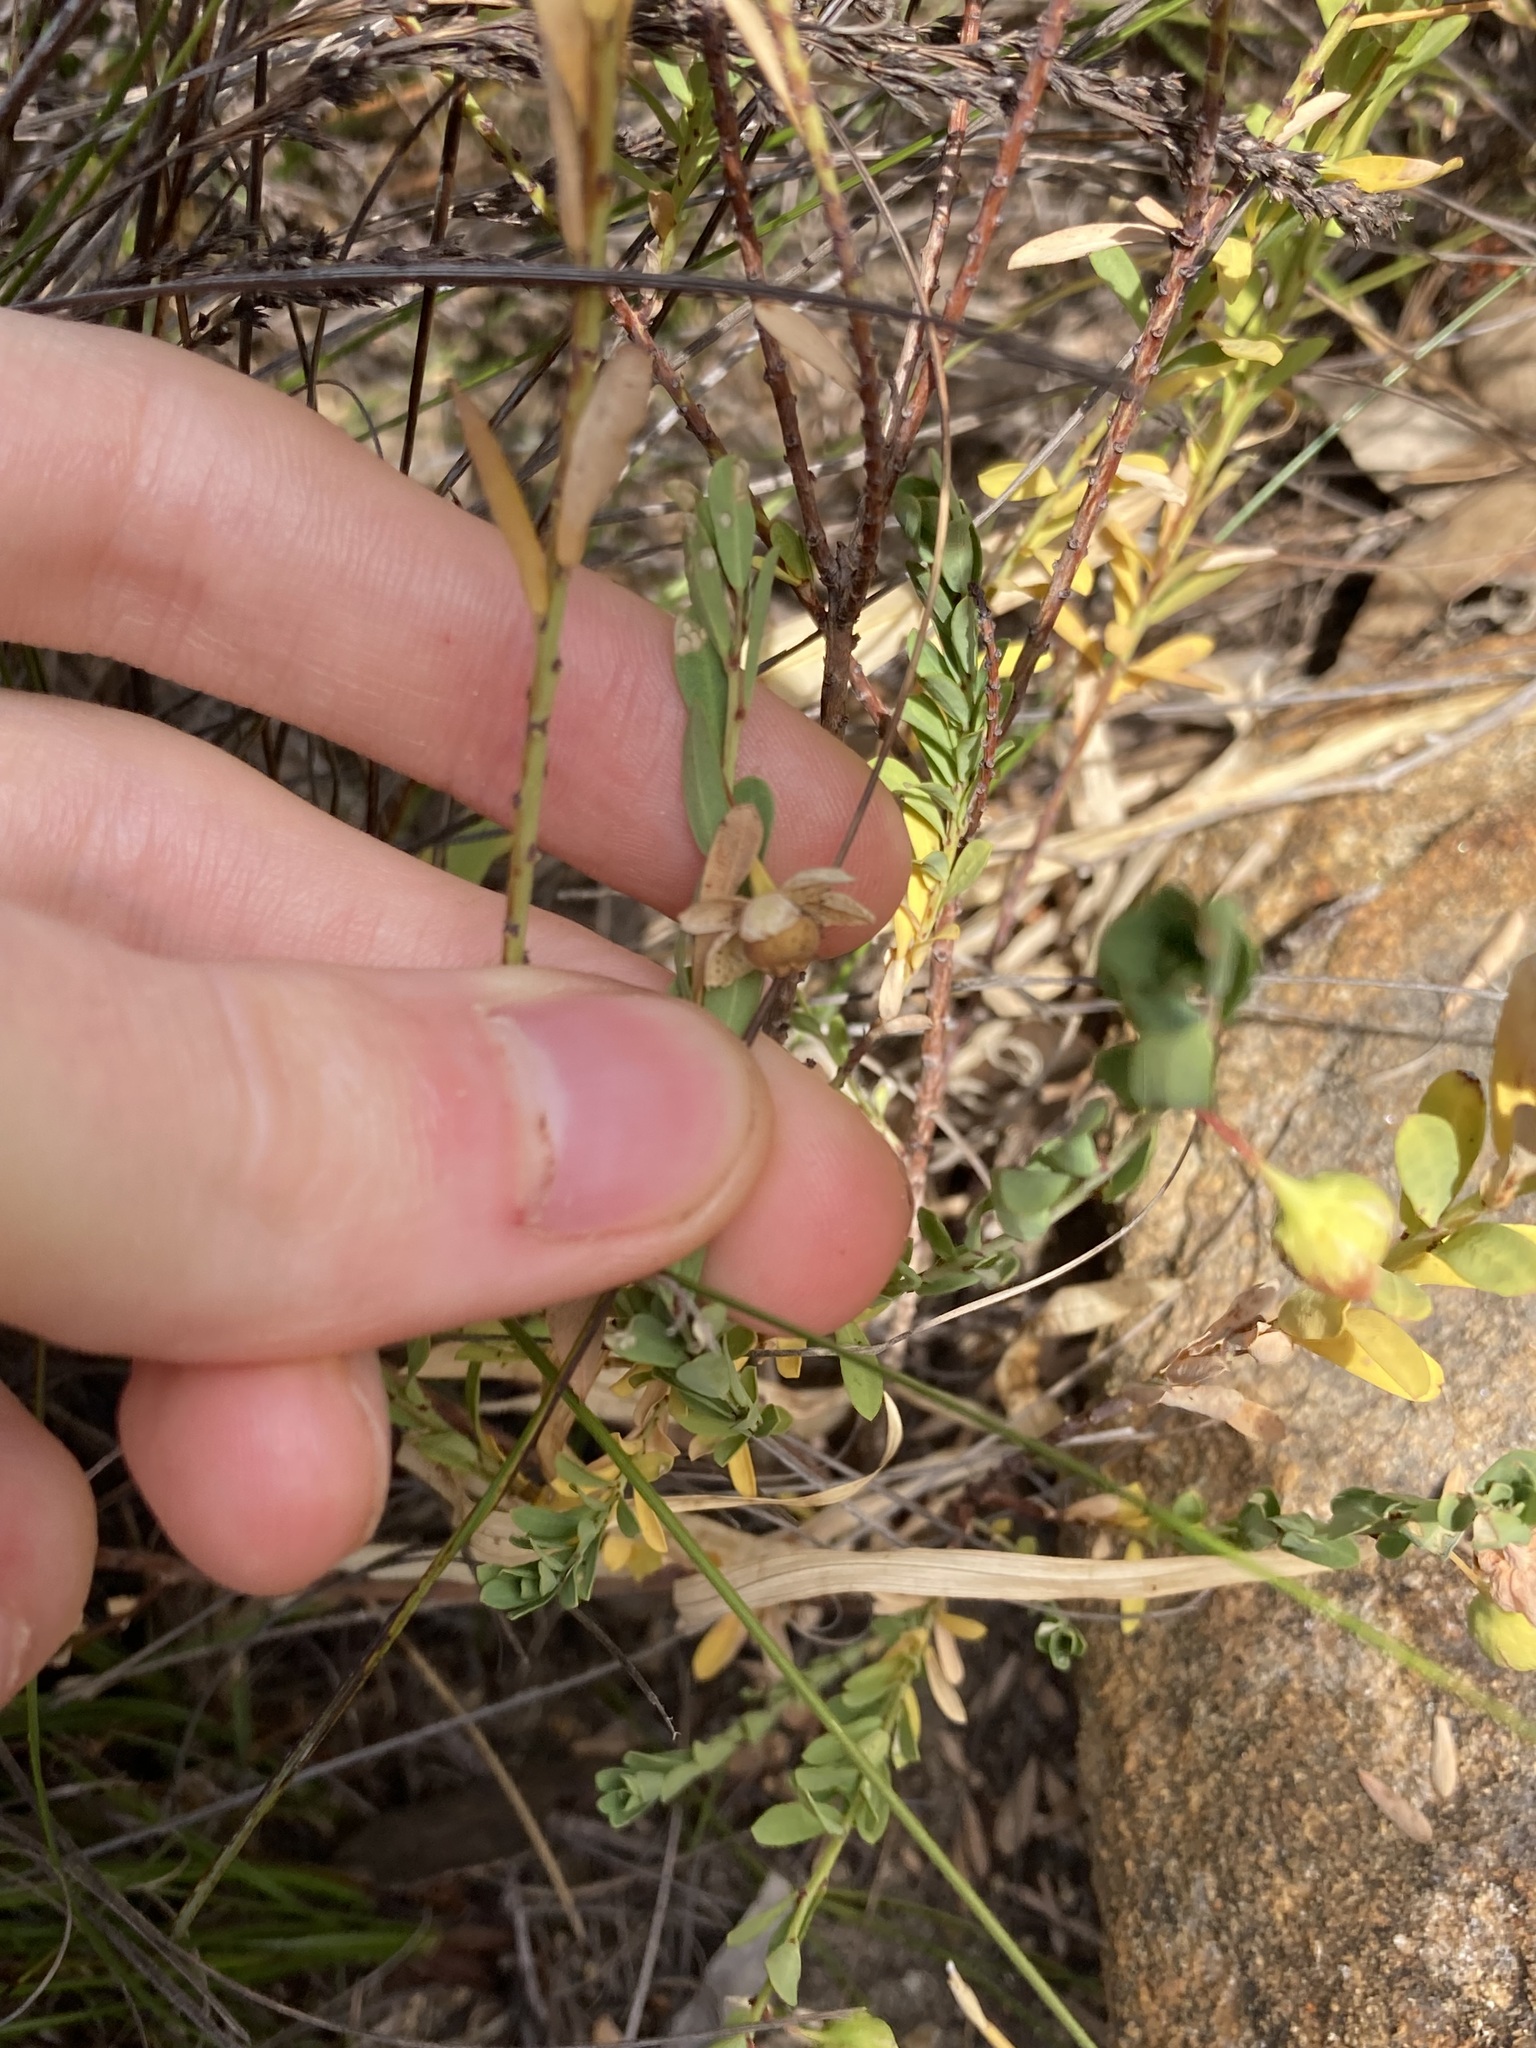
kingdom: Plantae
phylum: Tracheophyta
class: Magnoliopsida
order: Malpighiales
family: Phyllanthaceae
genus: Phyllanthus
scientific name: Phyllanthus calycinus
